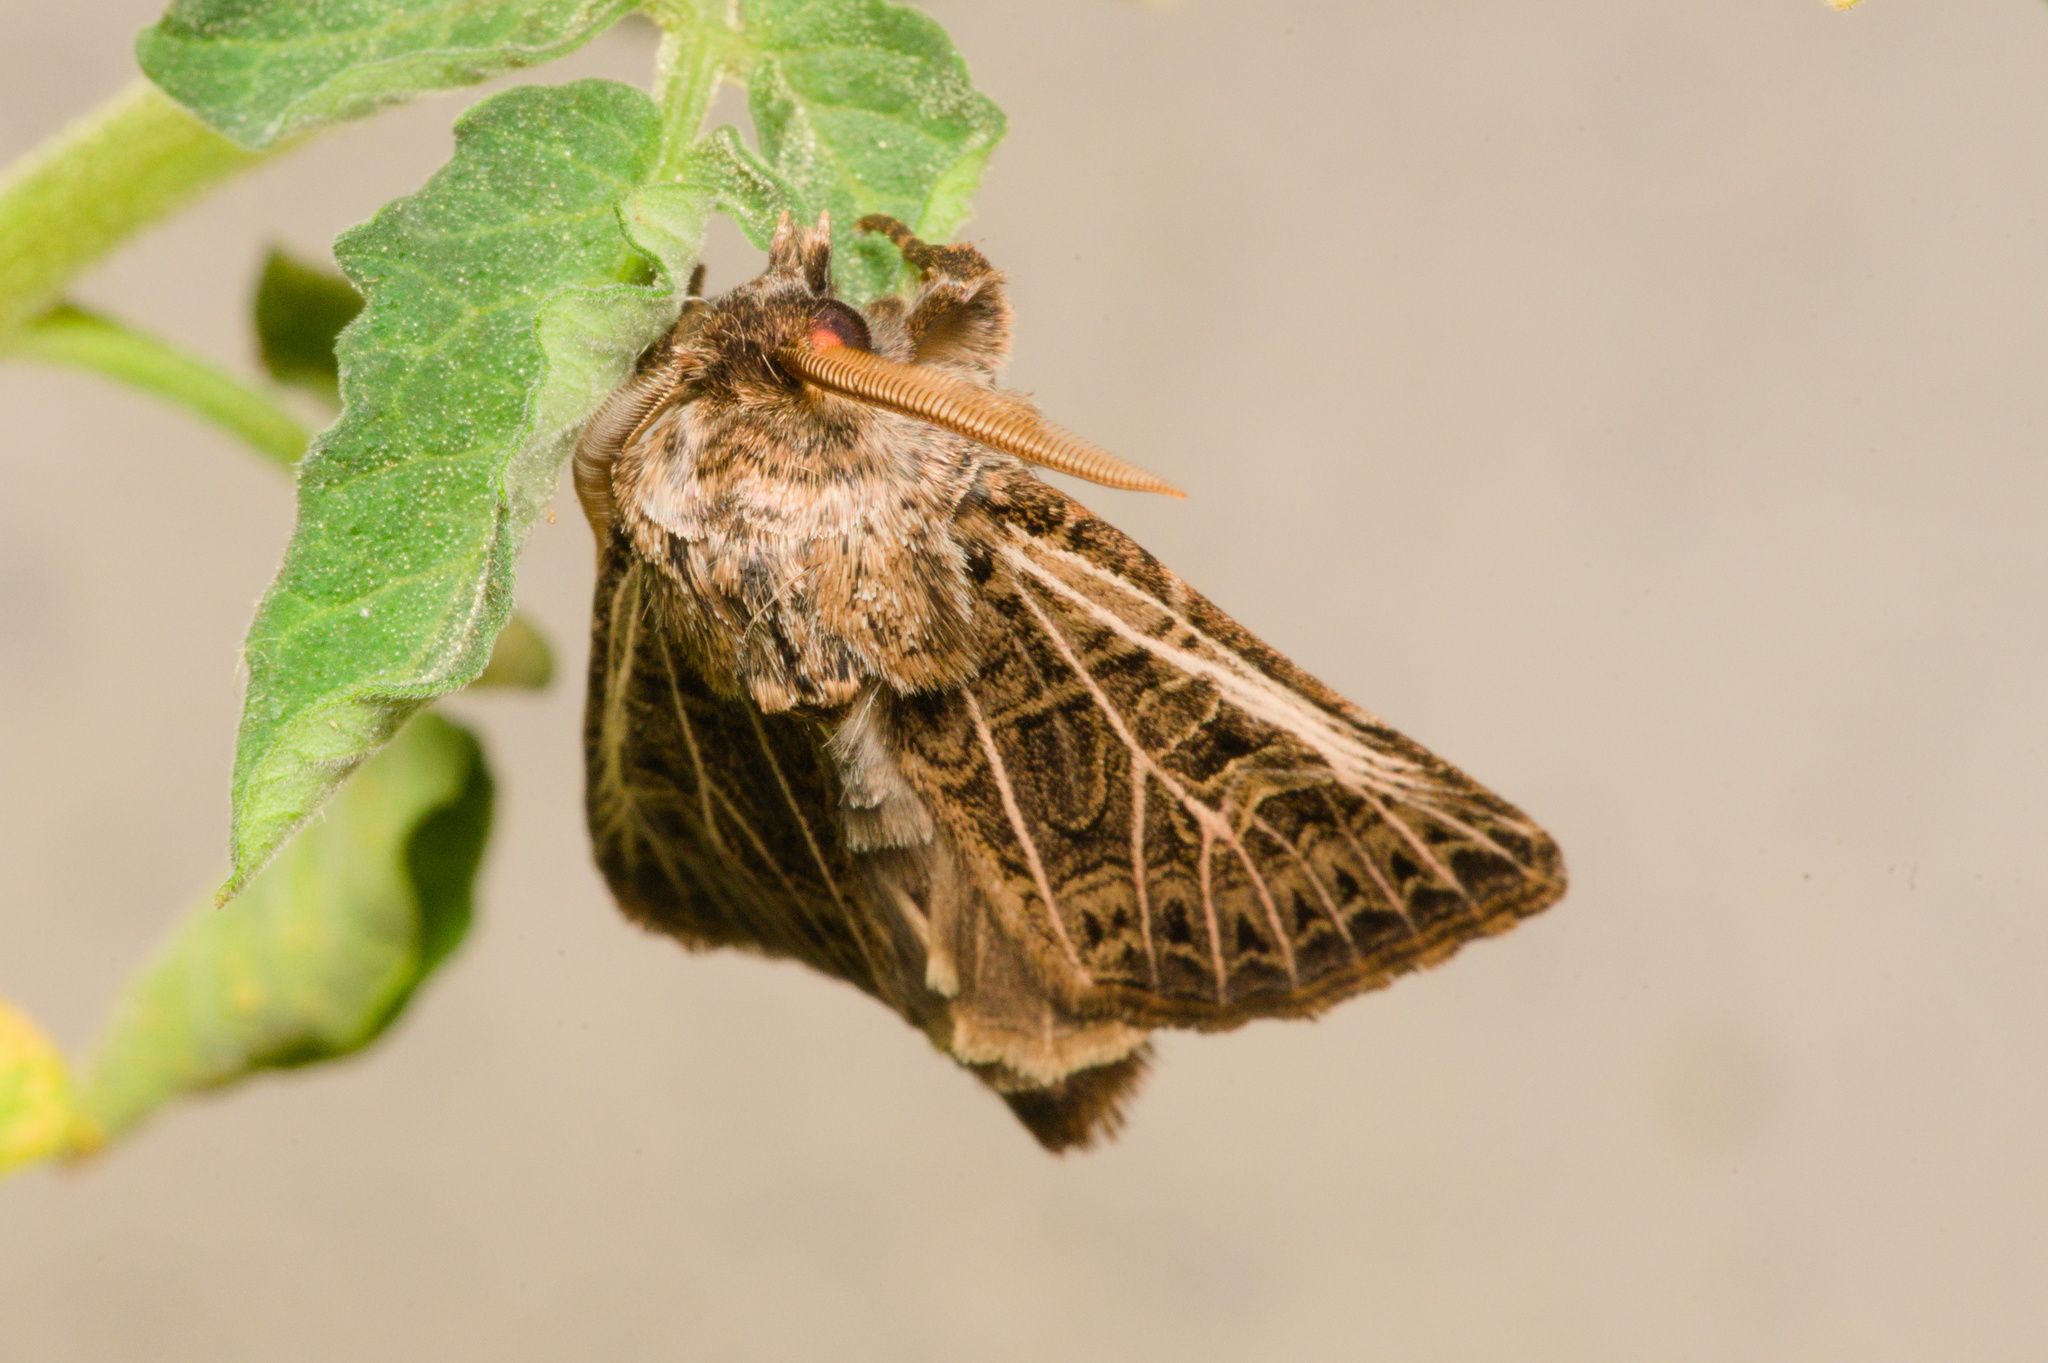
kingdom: Animalia
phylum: Arthropoda
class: Insecta
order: Lepidoptera
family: Noctuidae
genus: Tholera
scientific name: Tholera decimalis
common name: Feathered gothic
